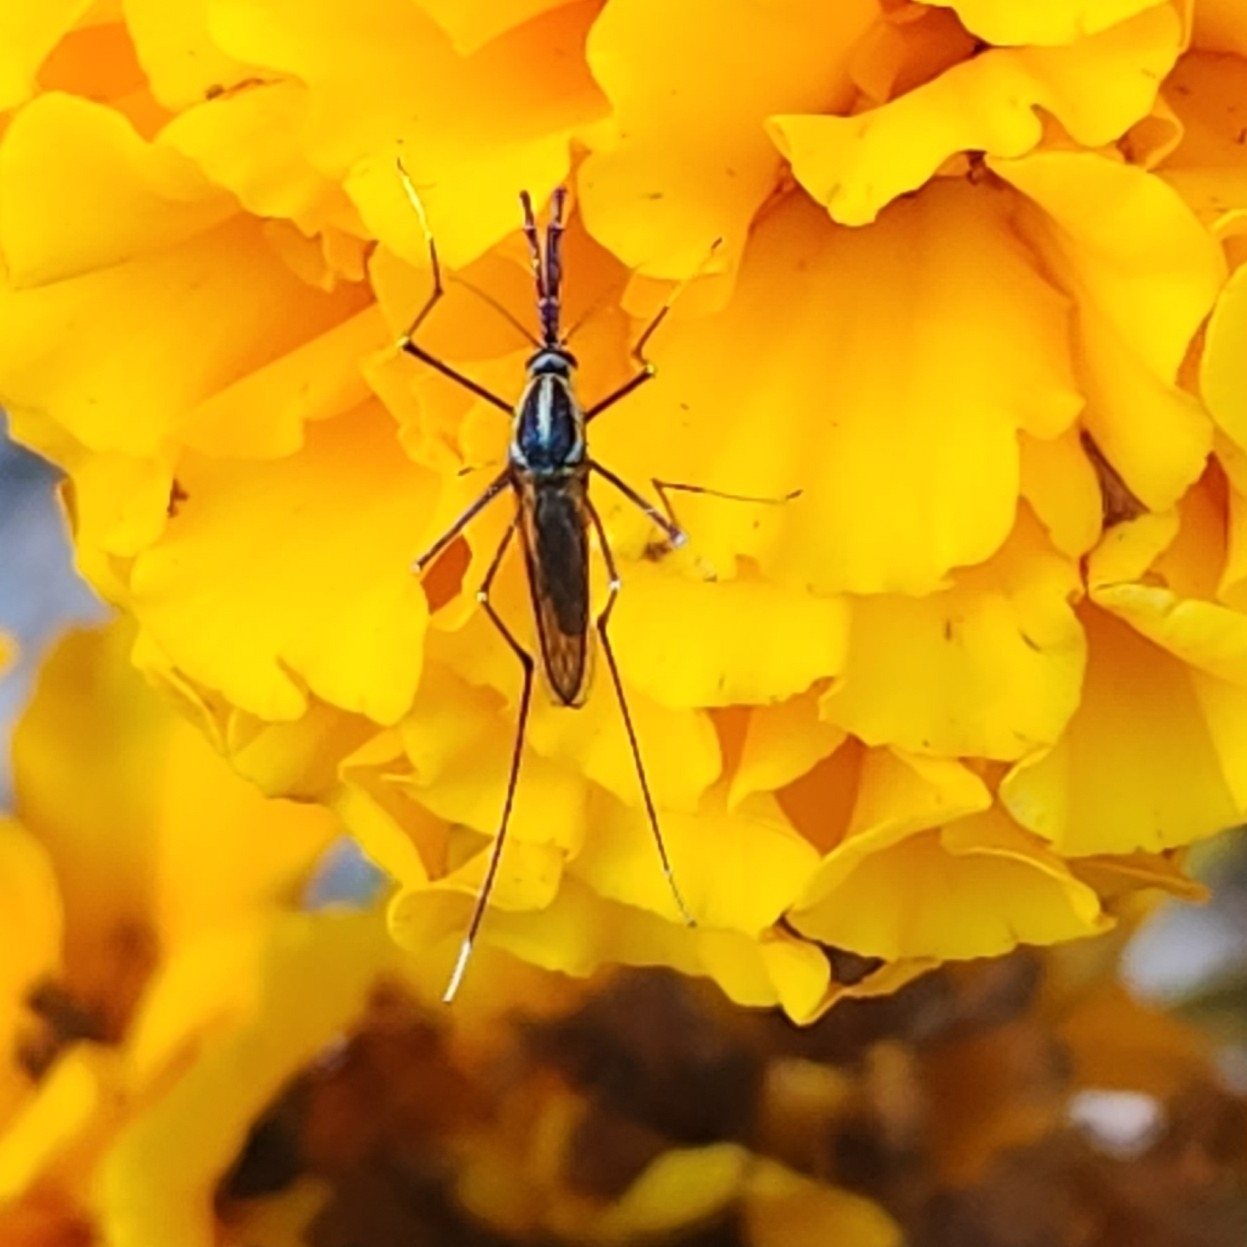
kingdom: Animalia
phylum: Arthropoda
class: Insecta
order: Diptera
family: Culicidae
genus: Toxorhynchites
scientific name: Toxorhynchites rutilus
